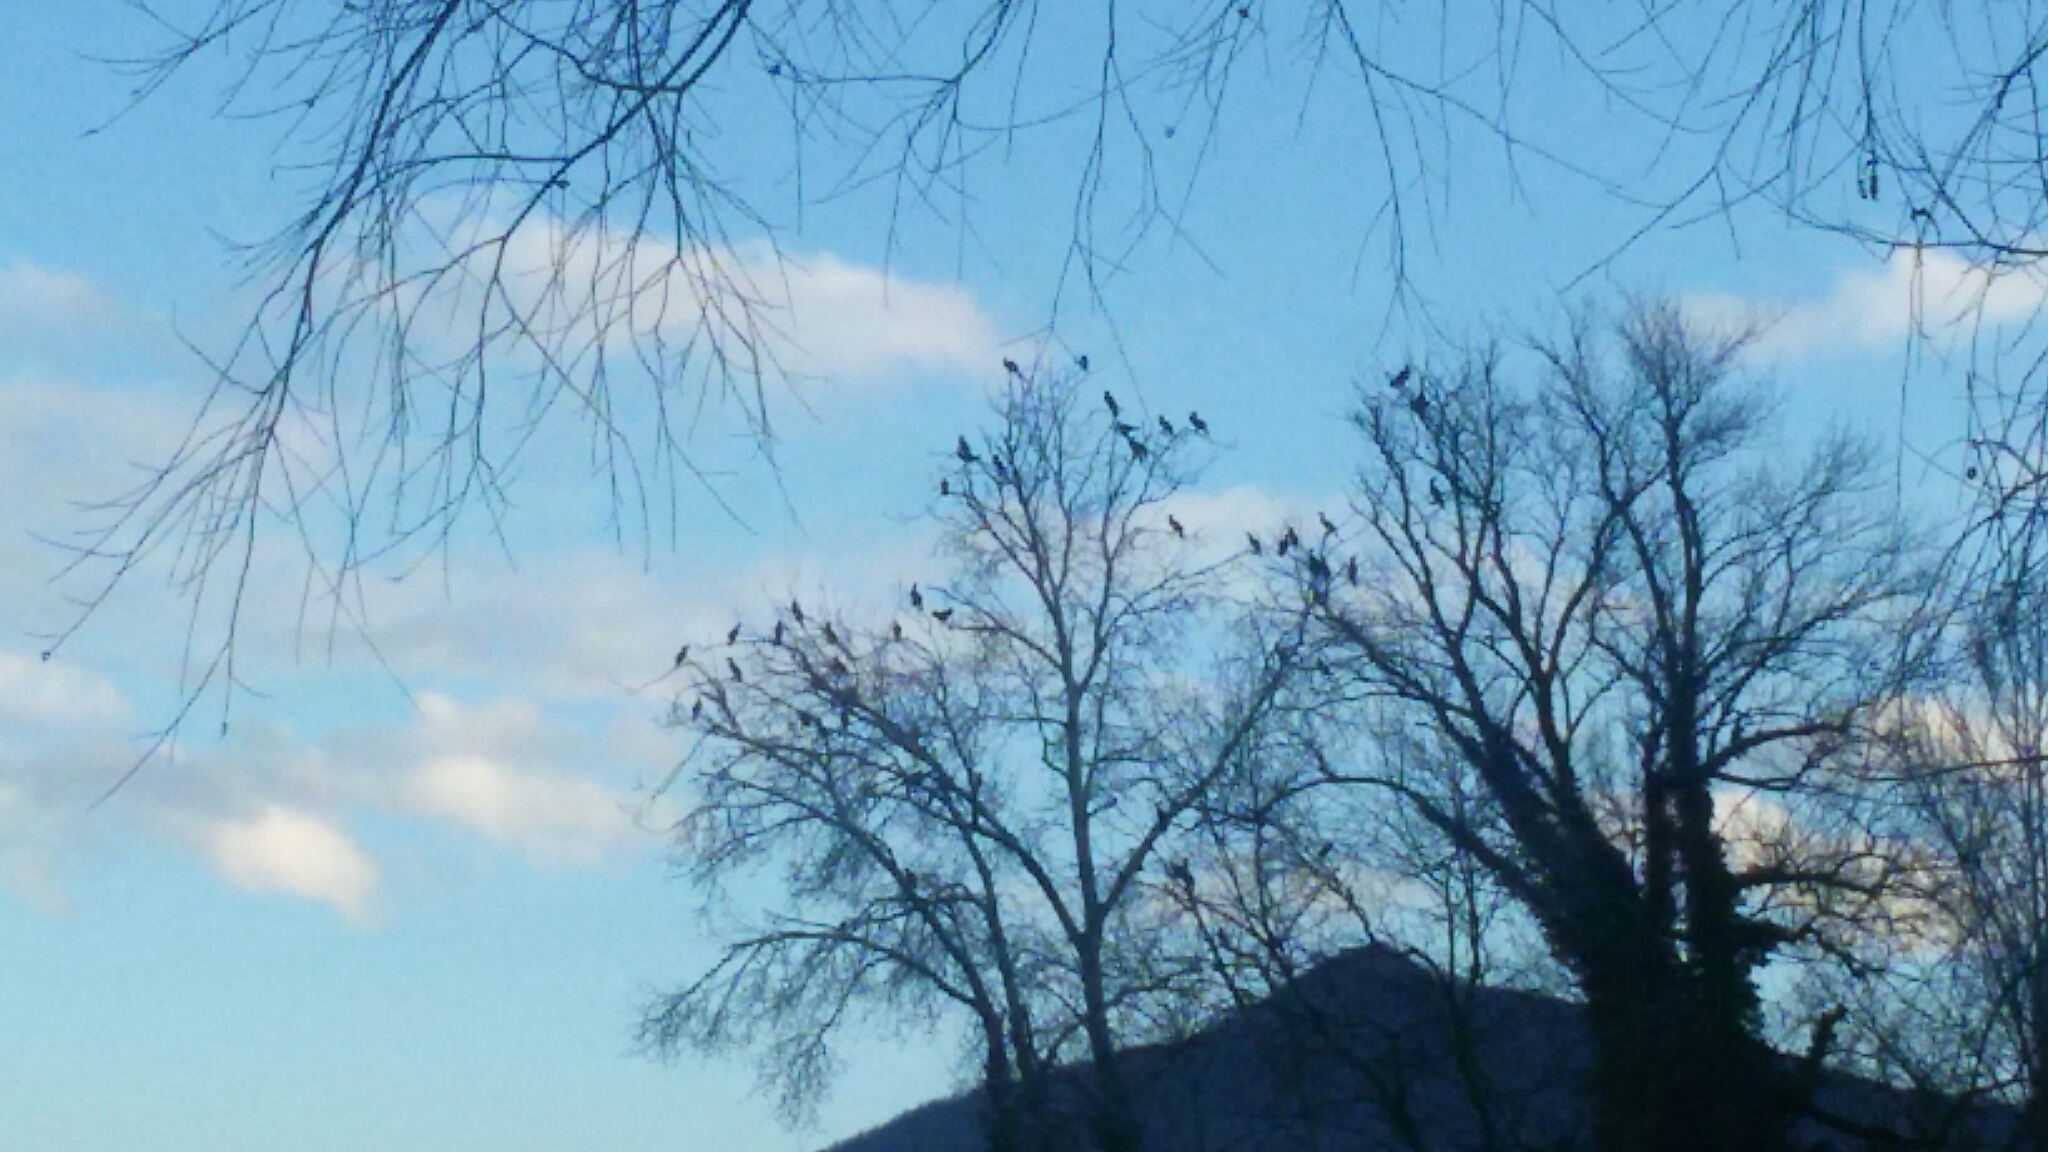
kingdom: Animalia
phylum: Chordata
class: Aves
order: Suliformes
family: Phalacrocoracidae
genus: Phalacrocorax
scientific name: Phalacrocorax carbo
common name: Great cormorant
